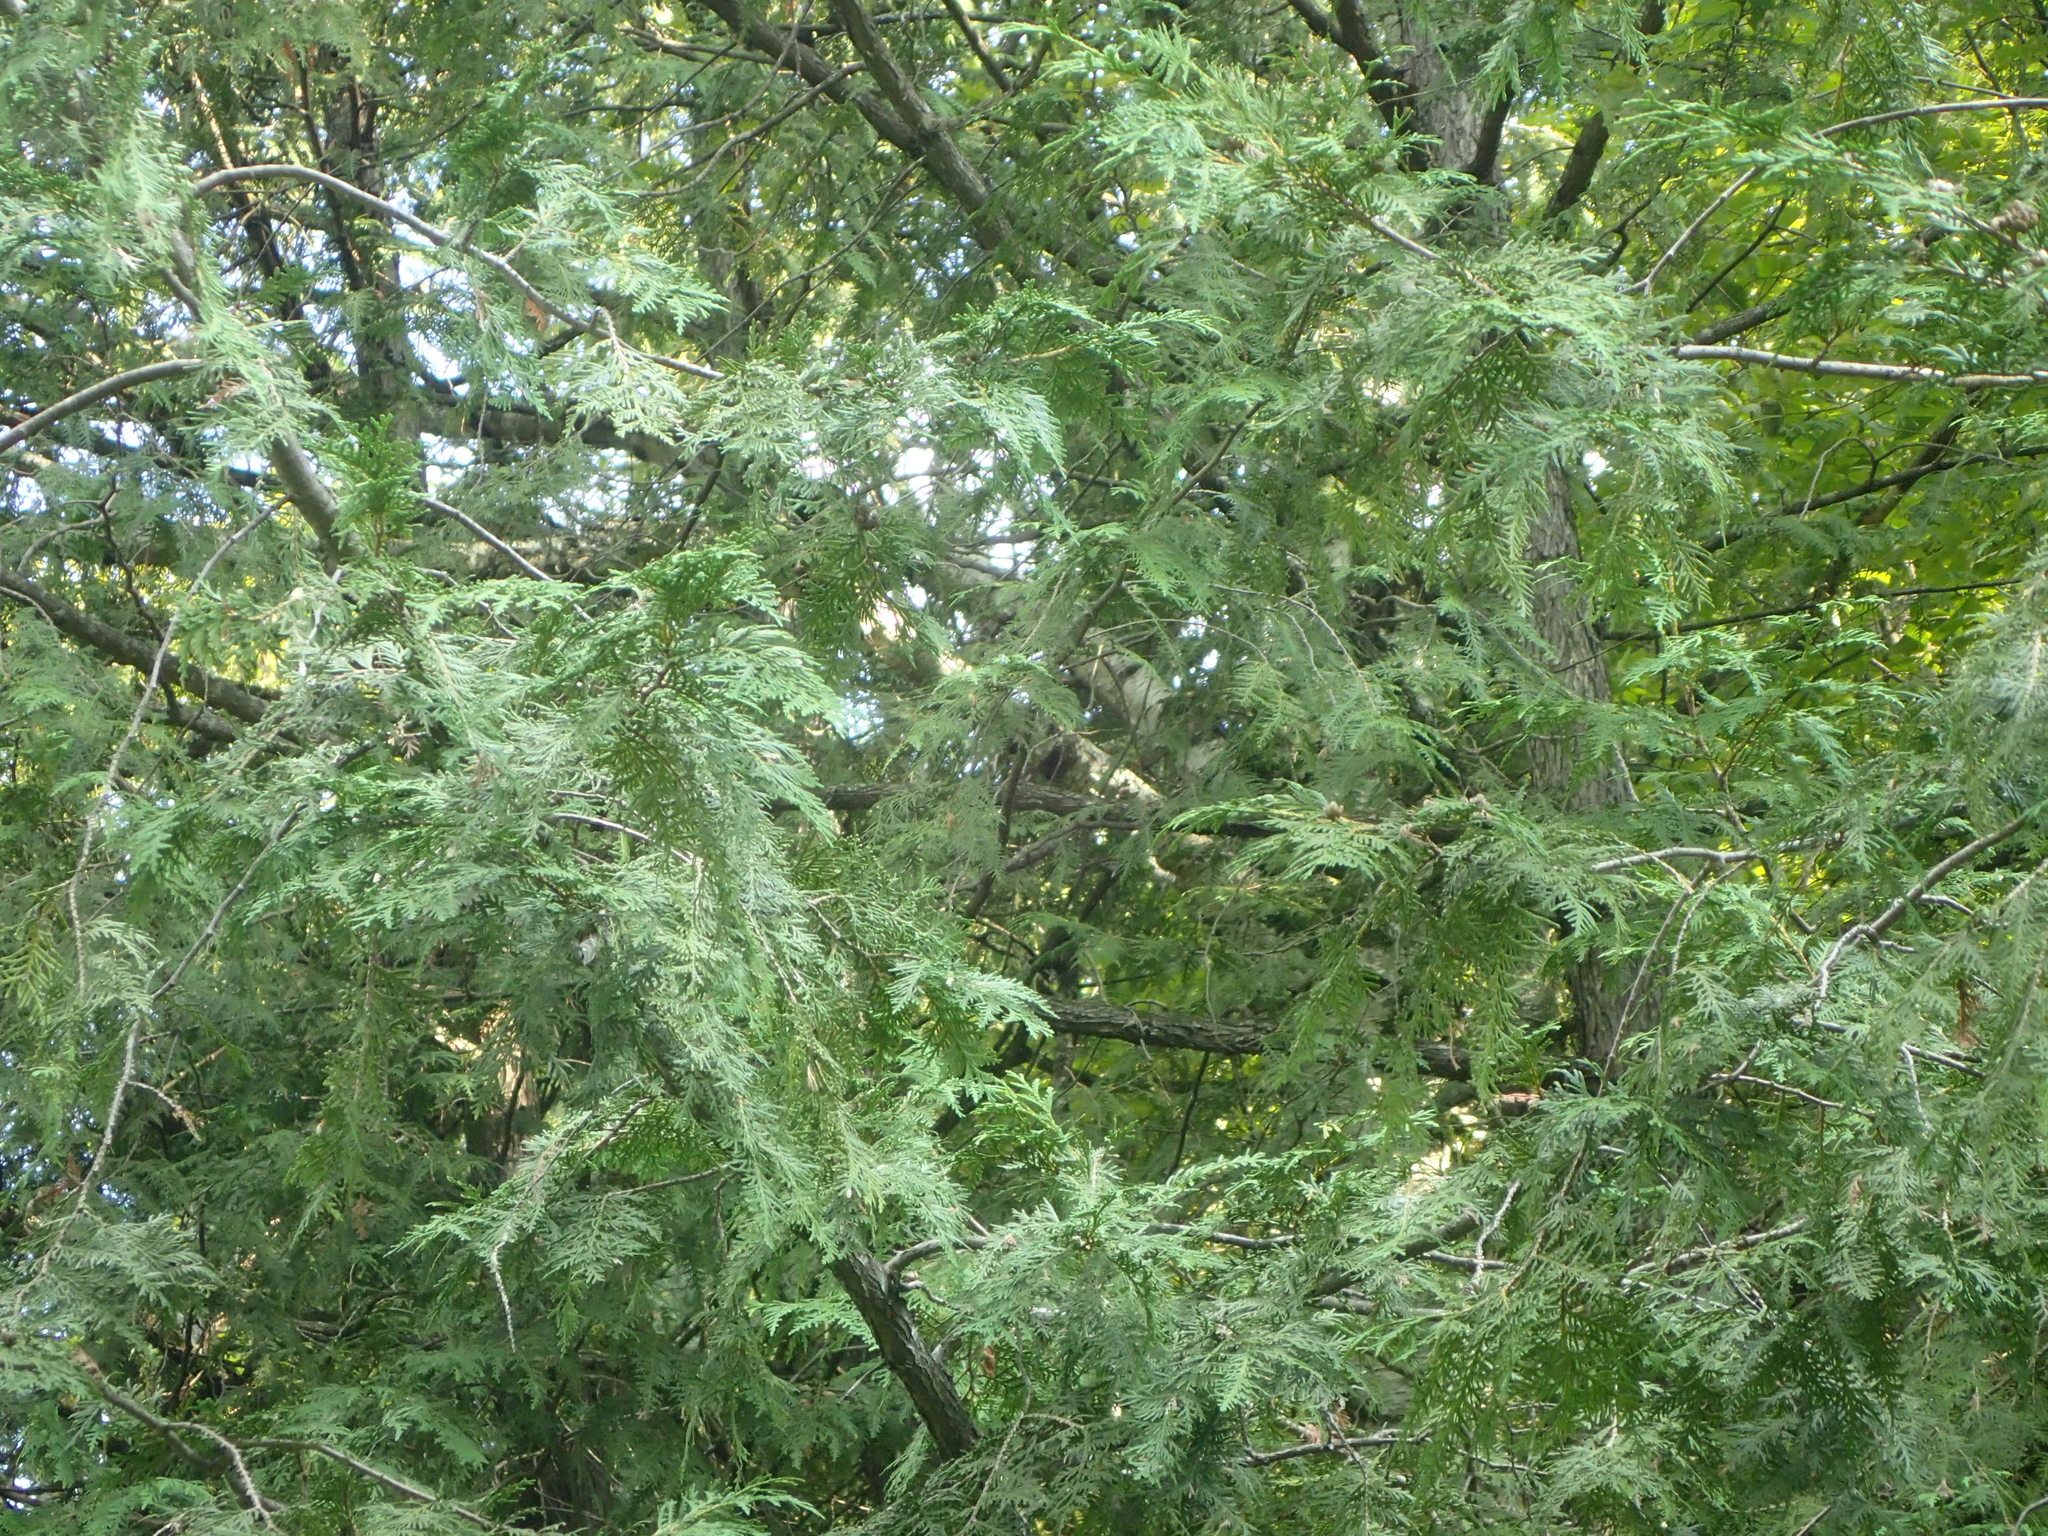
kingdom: Plantae
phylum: Tracheophyta
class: Pinopsida
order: Pinales
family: Cupressaceae
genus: Thuja
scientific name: Thuja occidentalis
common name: Northern white-cedar
